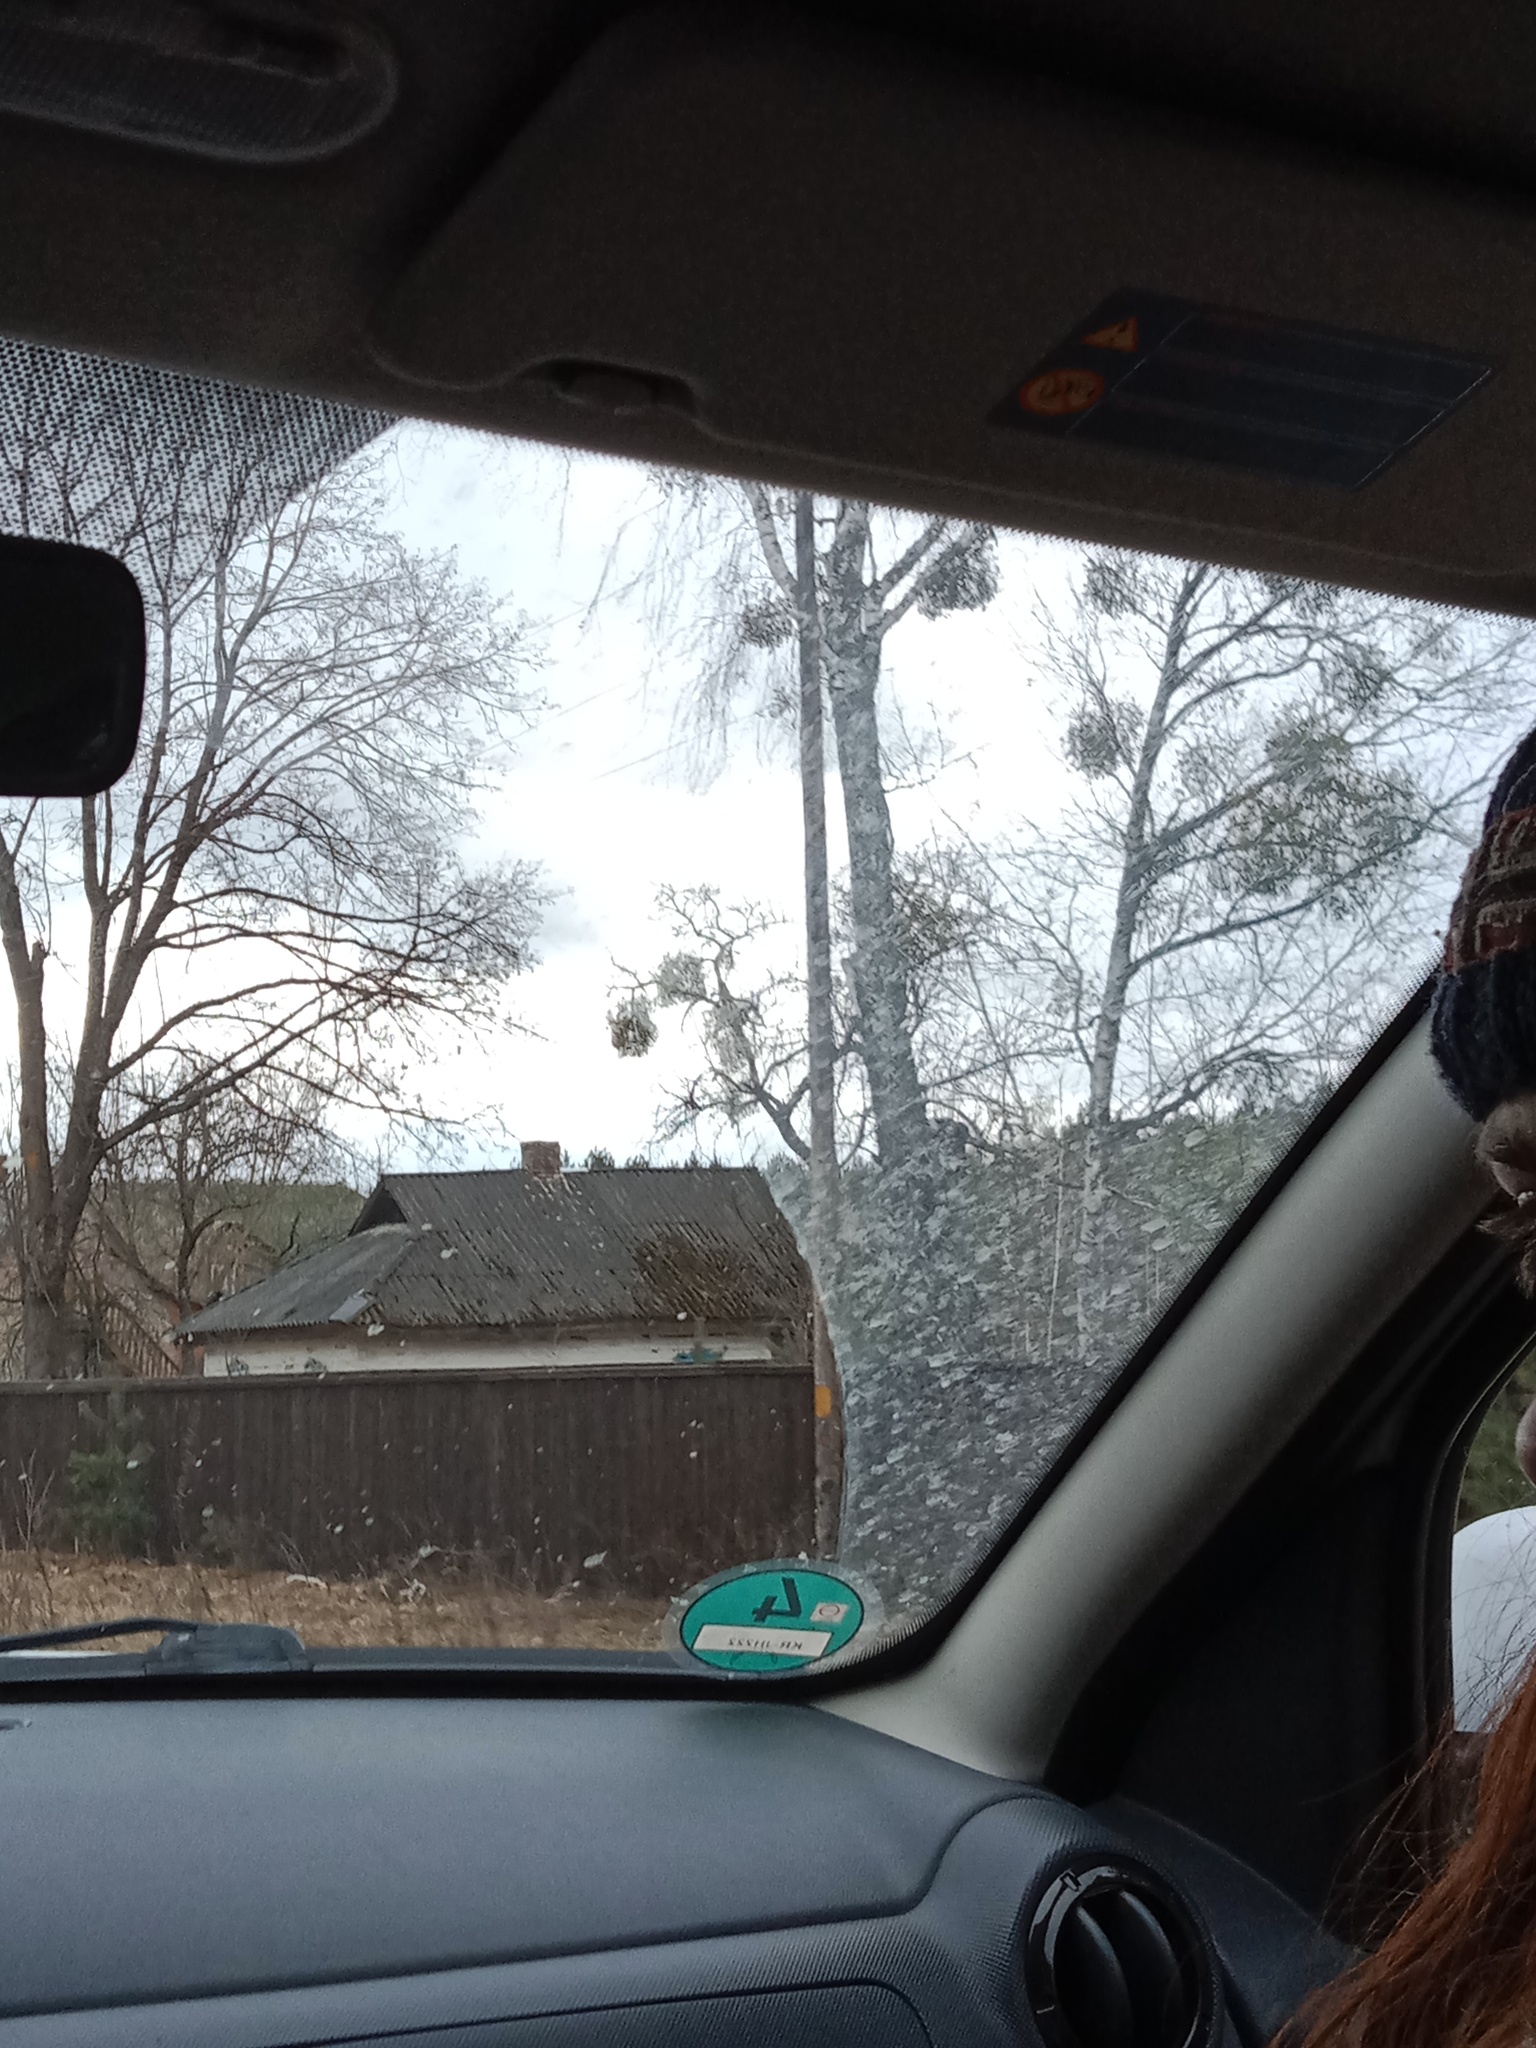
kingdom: Plantae
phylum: Tracheophyta
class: Magnoliopsida
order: Santalales
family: Viscaceae
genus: Viscum
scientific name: Viscum album
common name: Mistletoe
